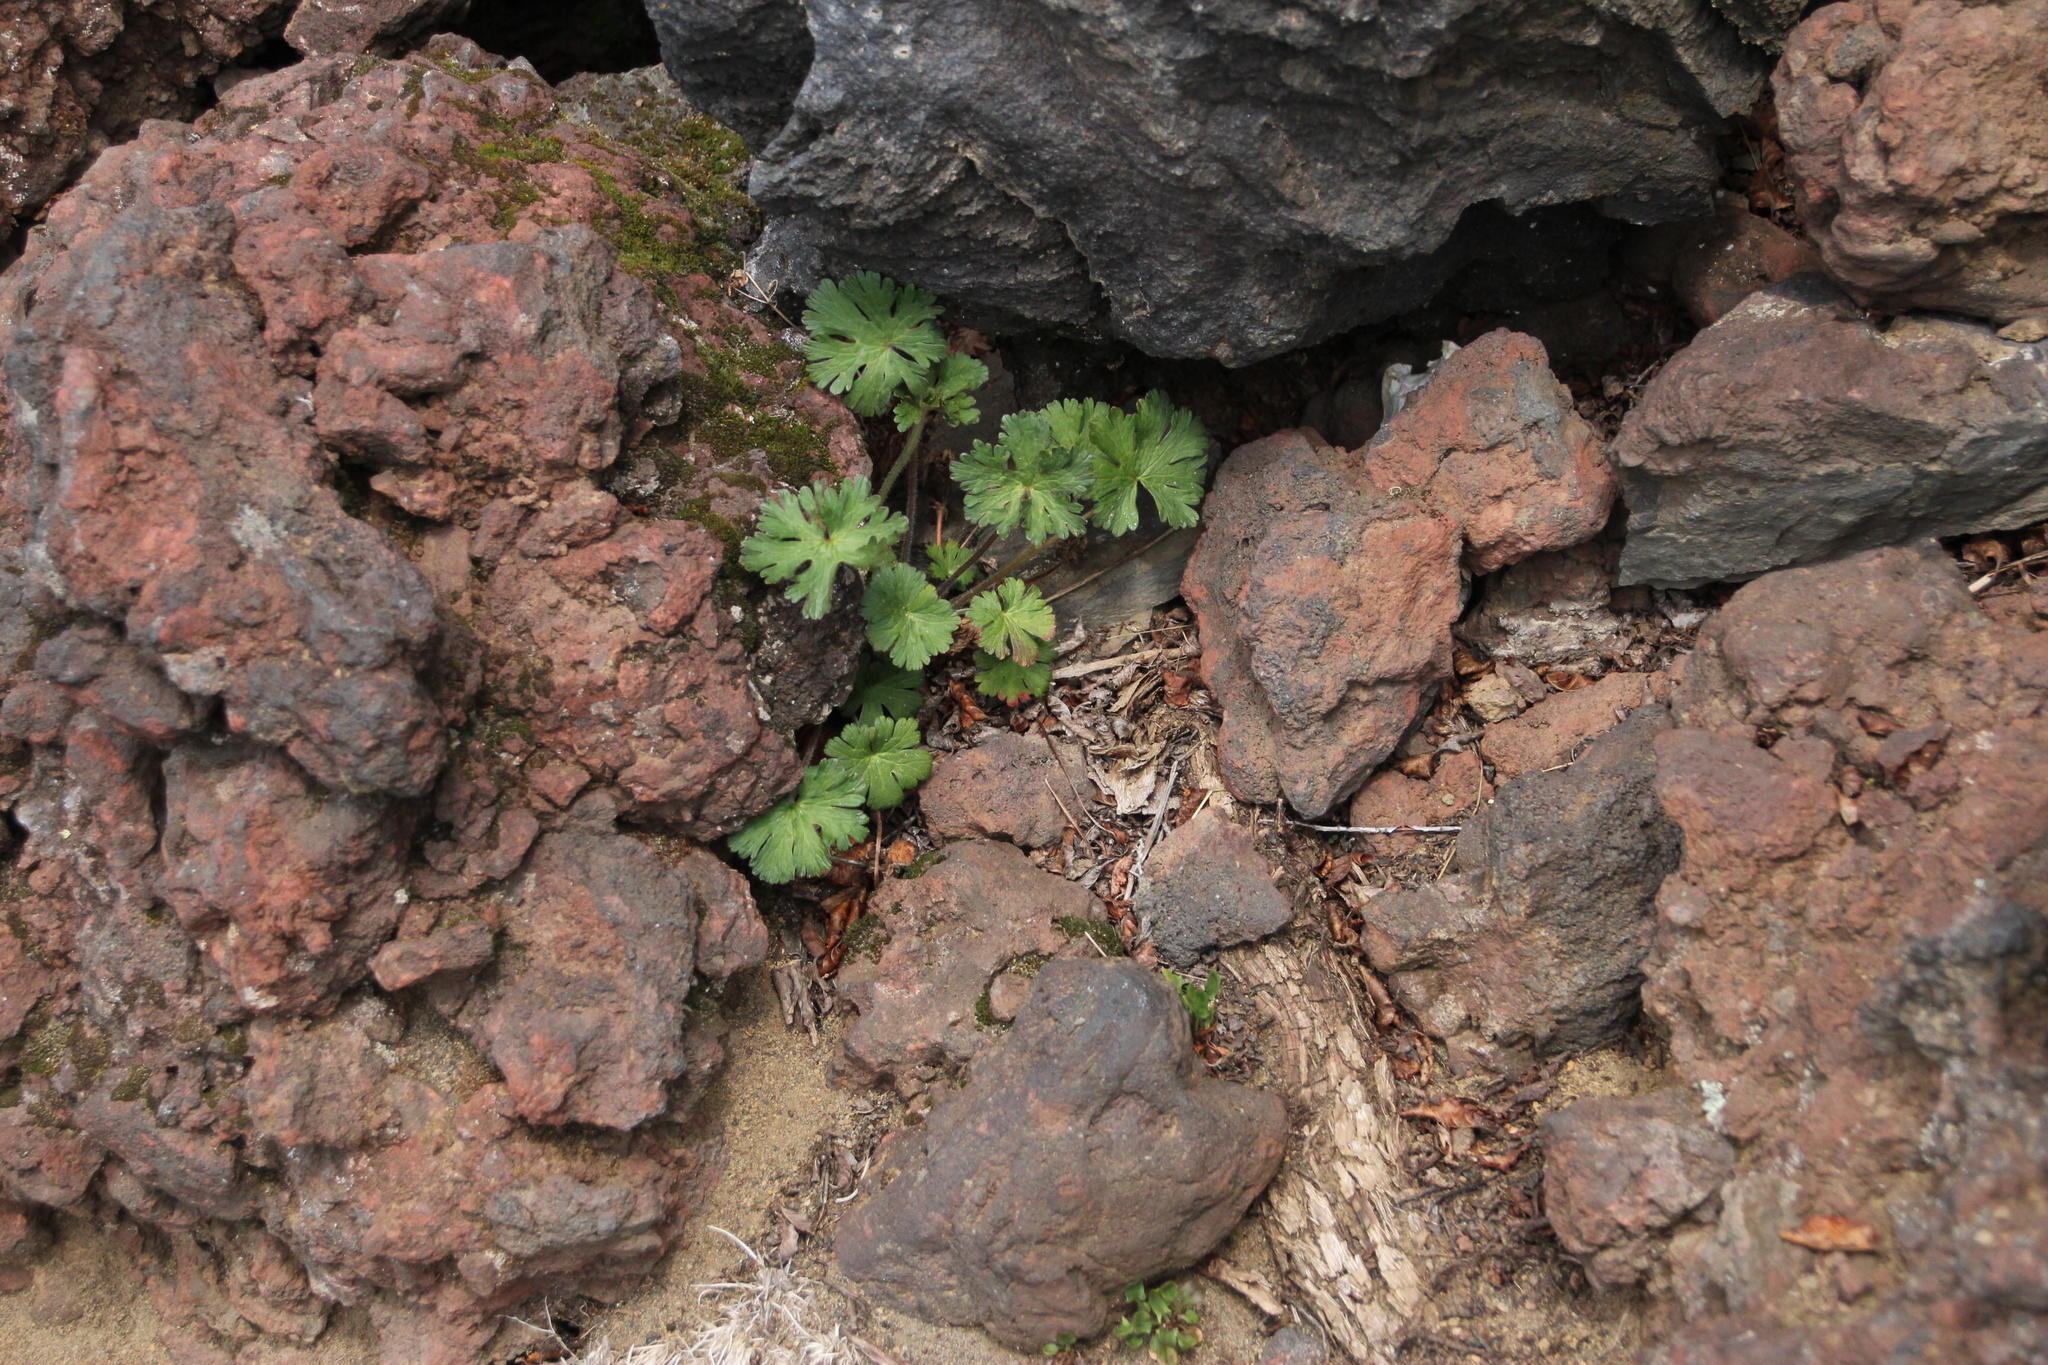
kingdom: Plantae
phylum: Tracheophyta
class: Magnoliopsida
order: Geraniales
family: Geraniaceae
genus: Geranium
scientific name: Geranium
